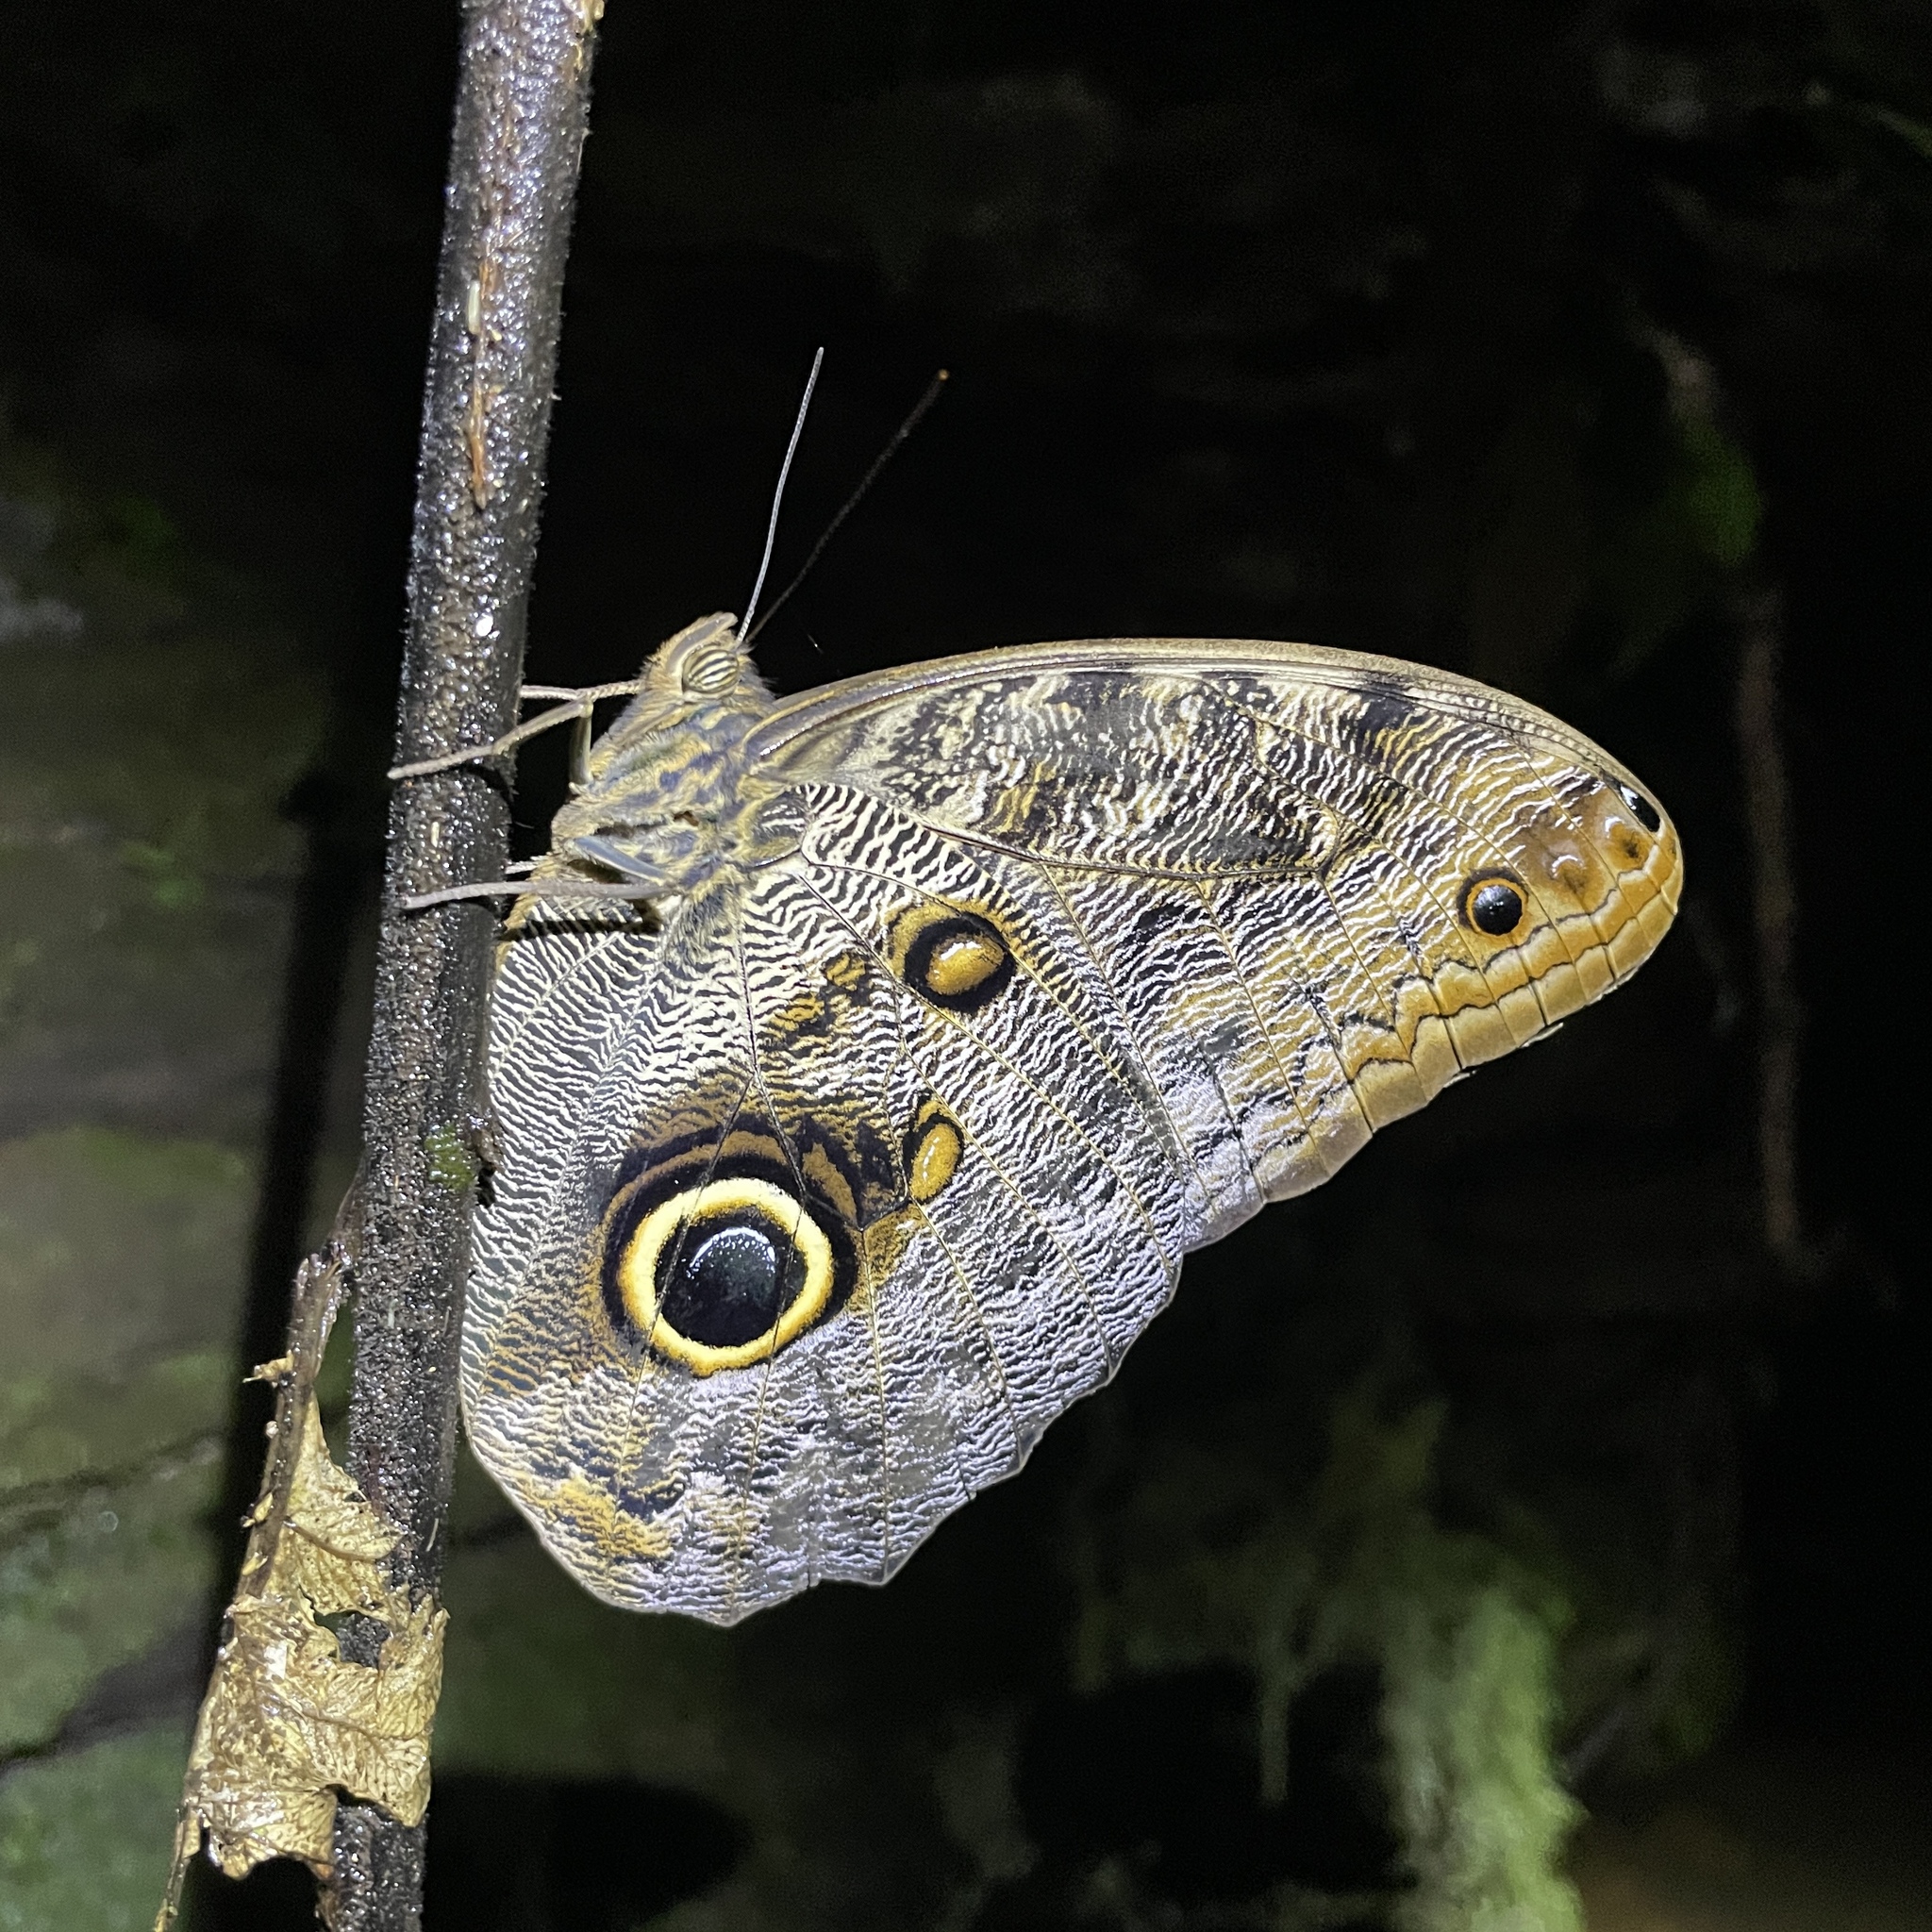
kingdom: Animalia
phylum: Arthropoda
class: Insecta
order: Lepidoptera
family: Nymphalidae
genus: Caligo
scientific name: Caligo brasiliensis
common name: Dark owl-butterfly
